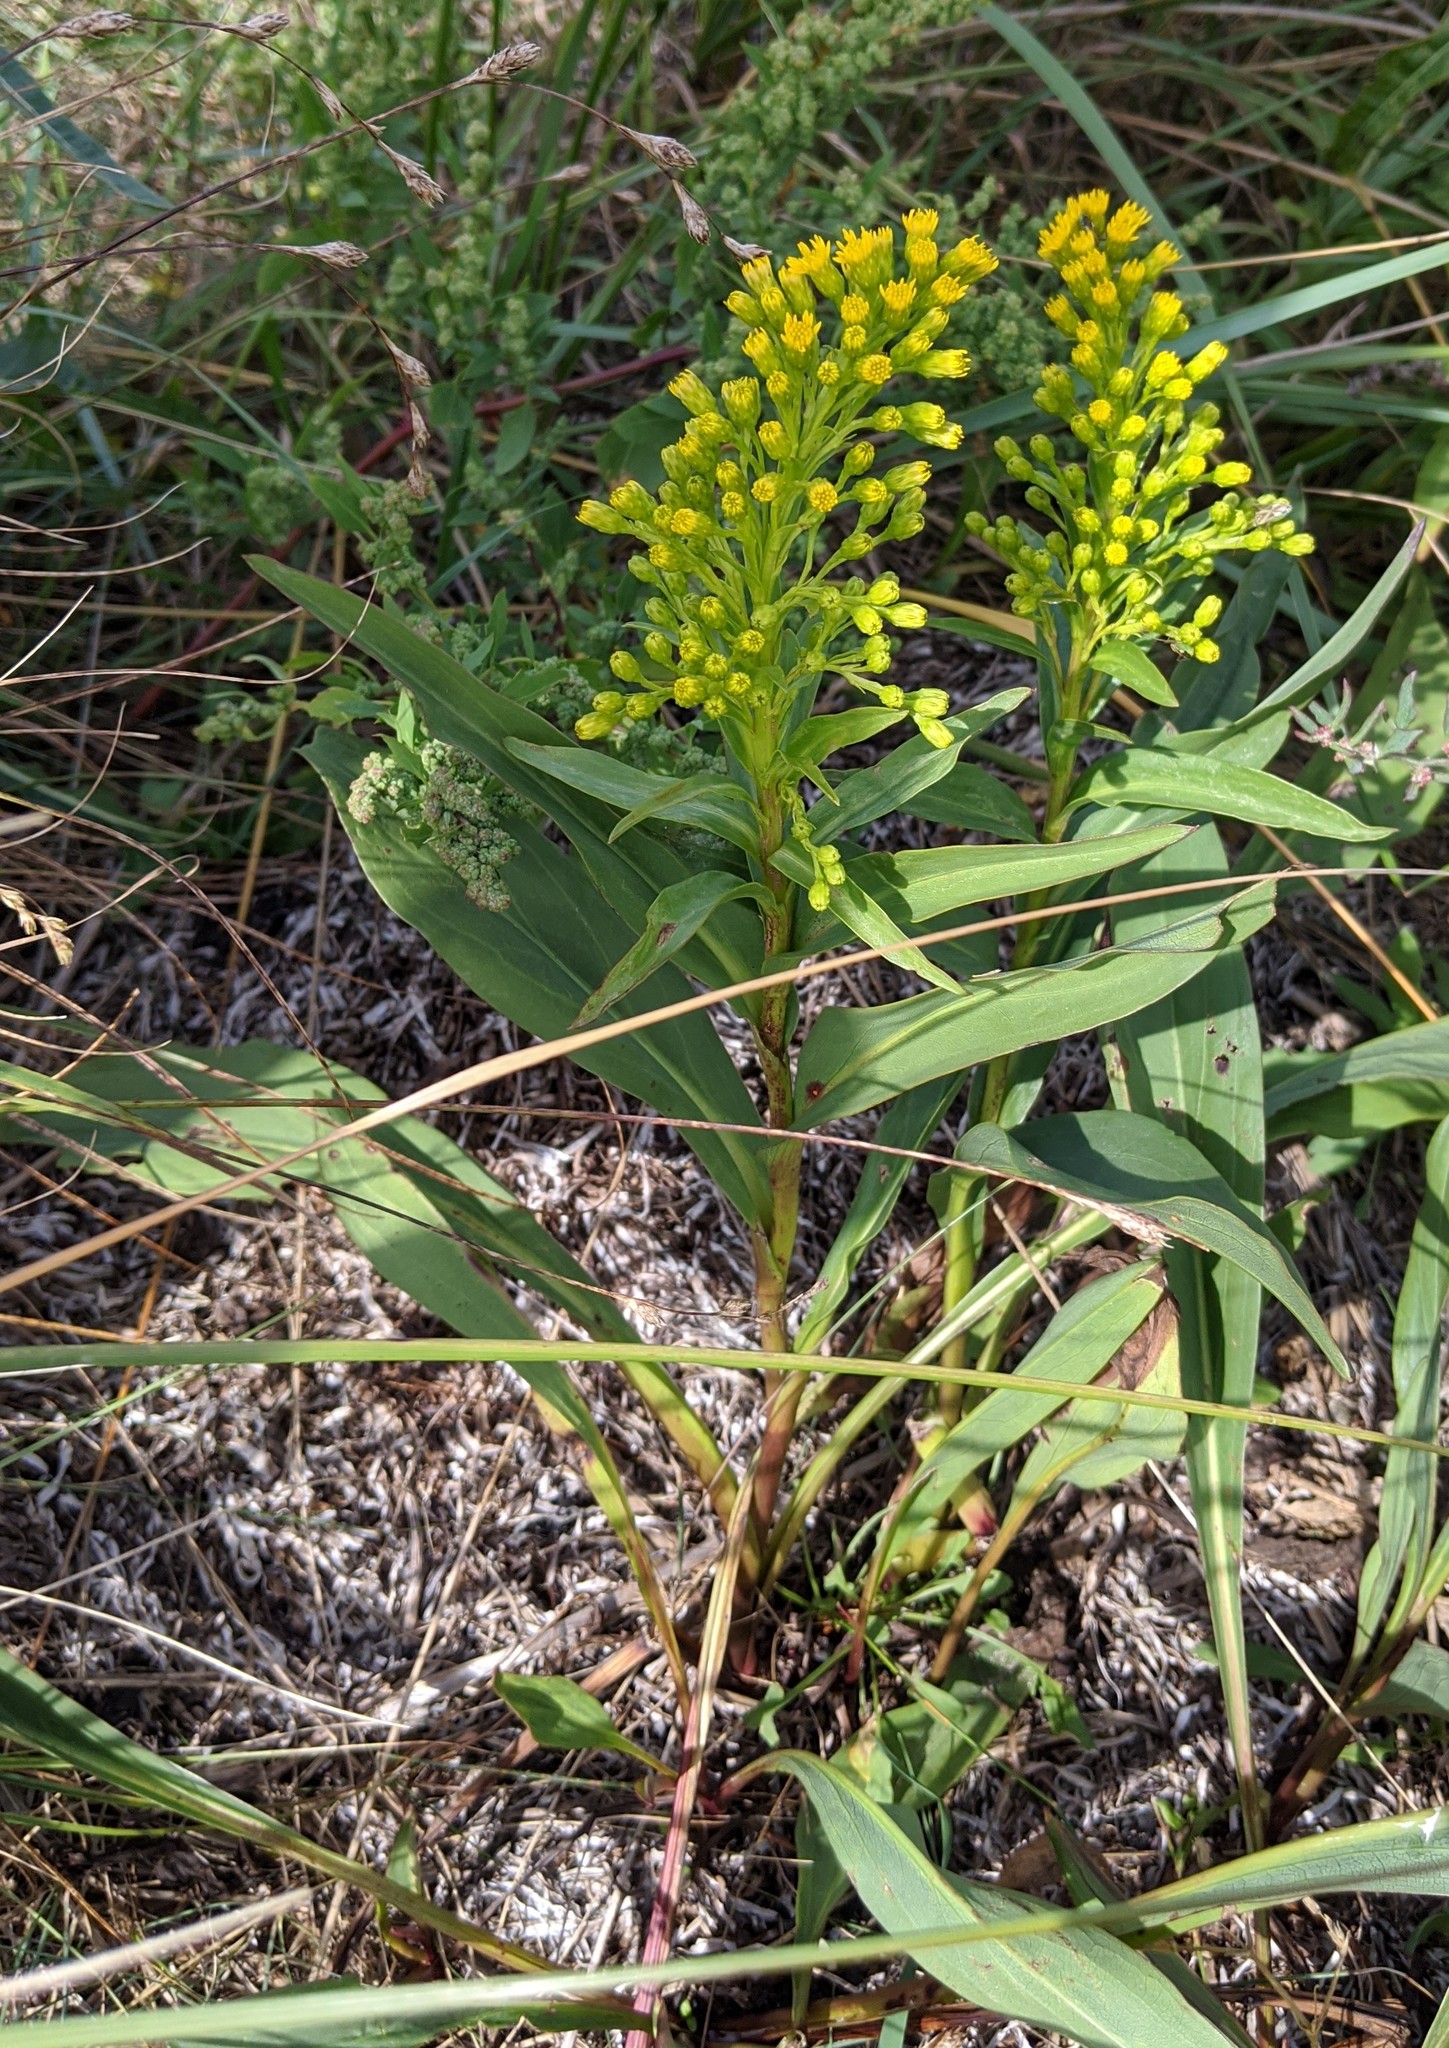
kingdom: Plantae
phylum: Tracheophyta
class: Magnoliopsida
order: Asterales
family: Asteraceae
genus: Solidago
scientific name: Solidago sempervirens
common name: Salt-marsh goldenrod
